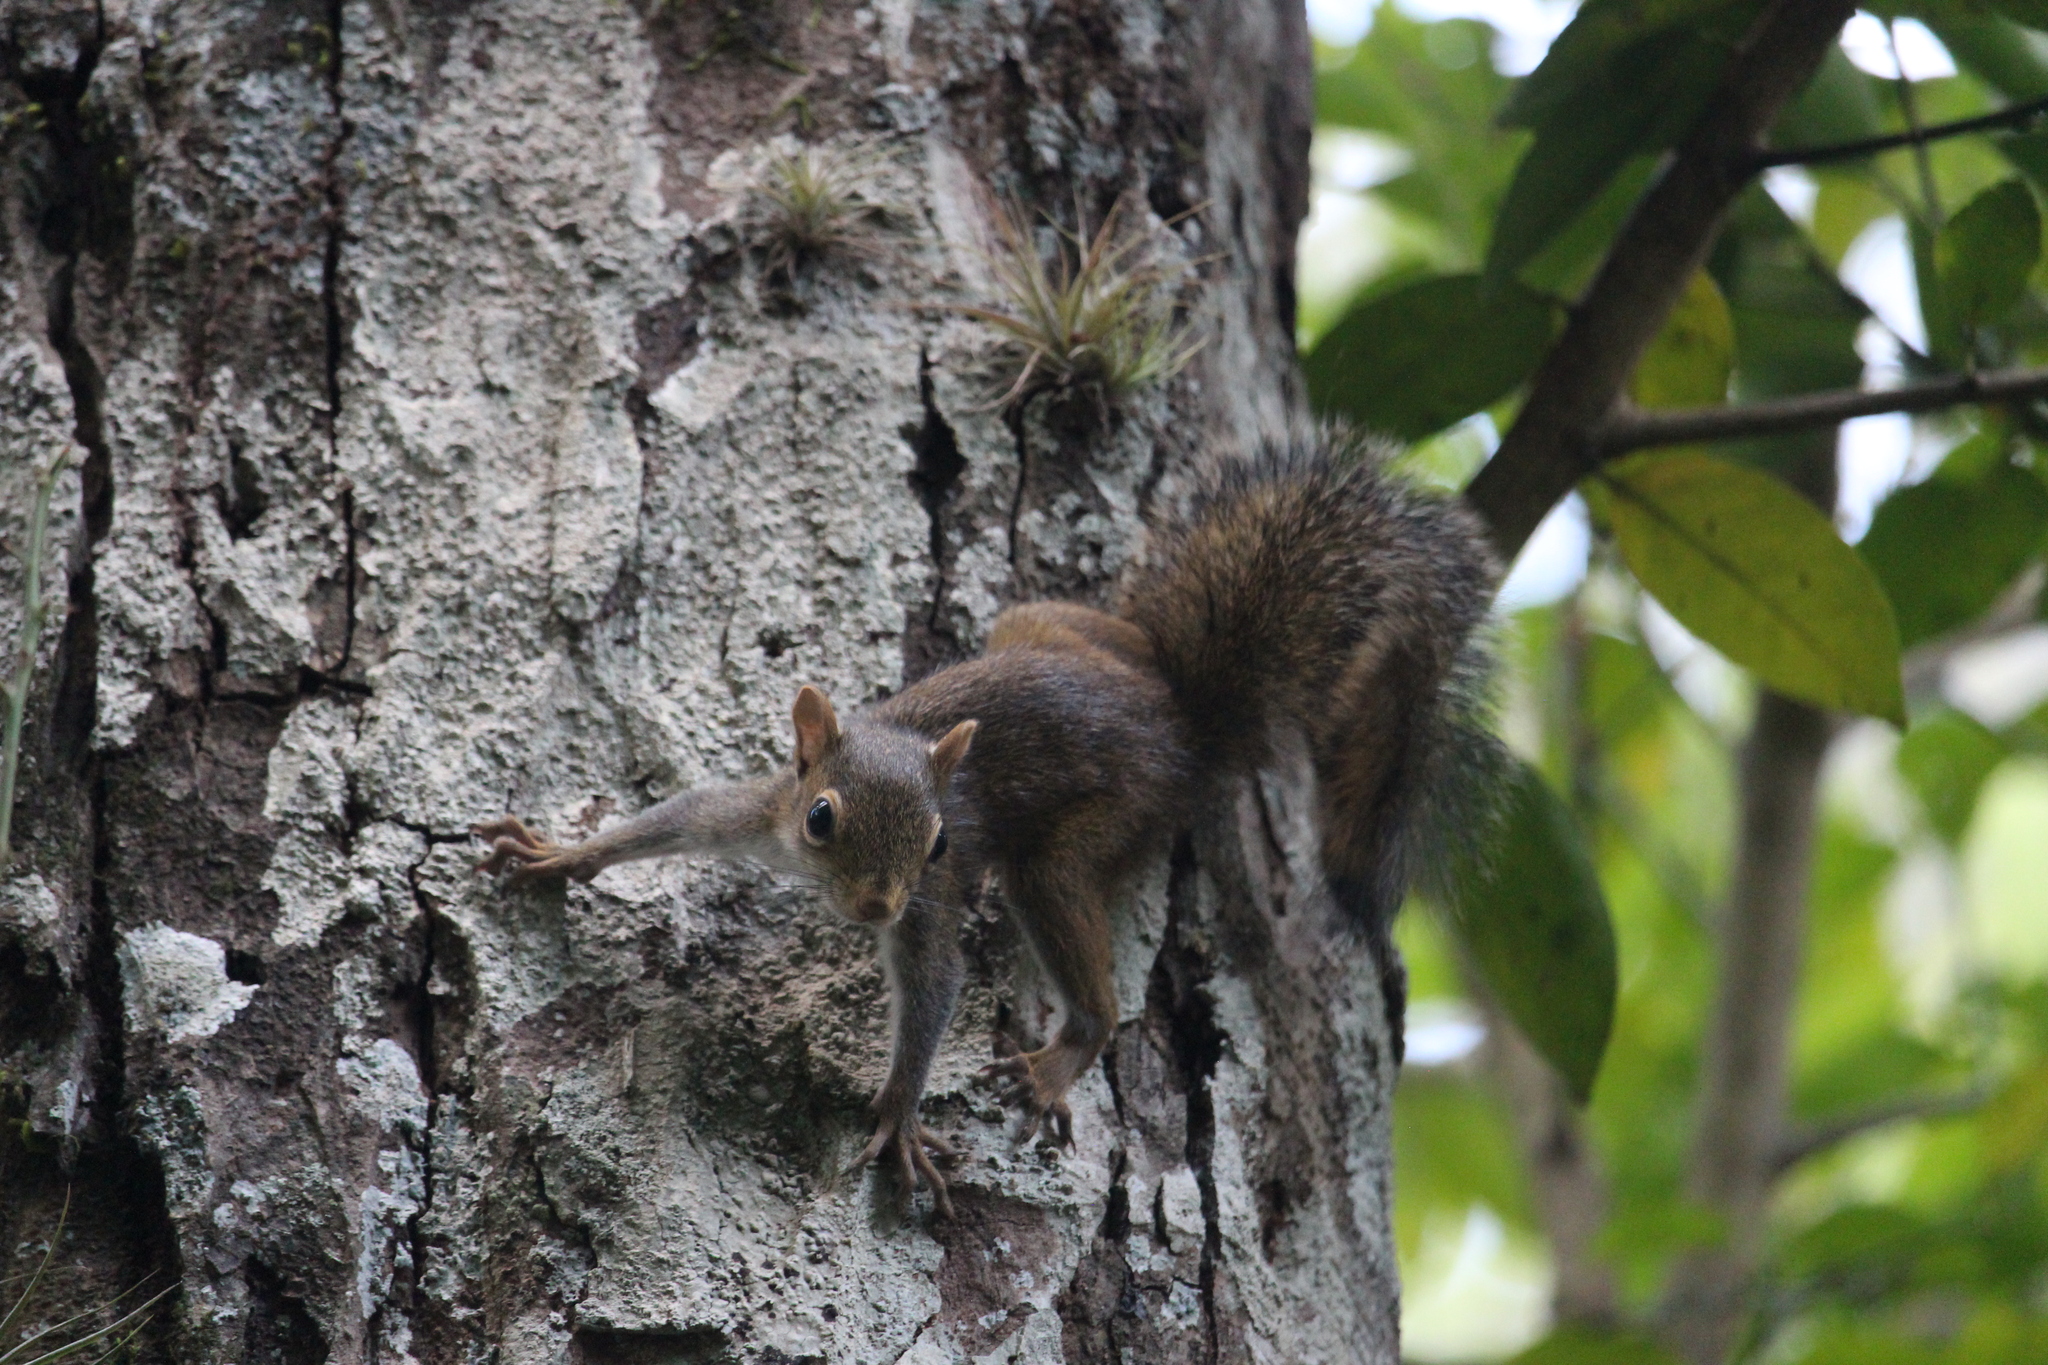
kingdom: Animalia
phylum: Chordata
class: Mammalia
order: Rodentia
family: Sciuridae
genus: Sciurus
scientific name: Sciurus deppei
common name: Deppe's squirrel
